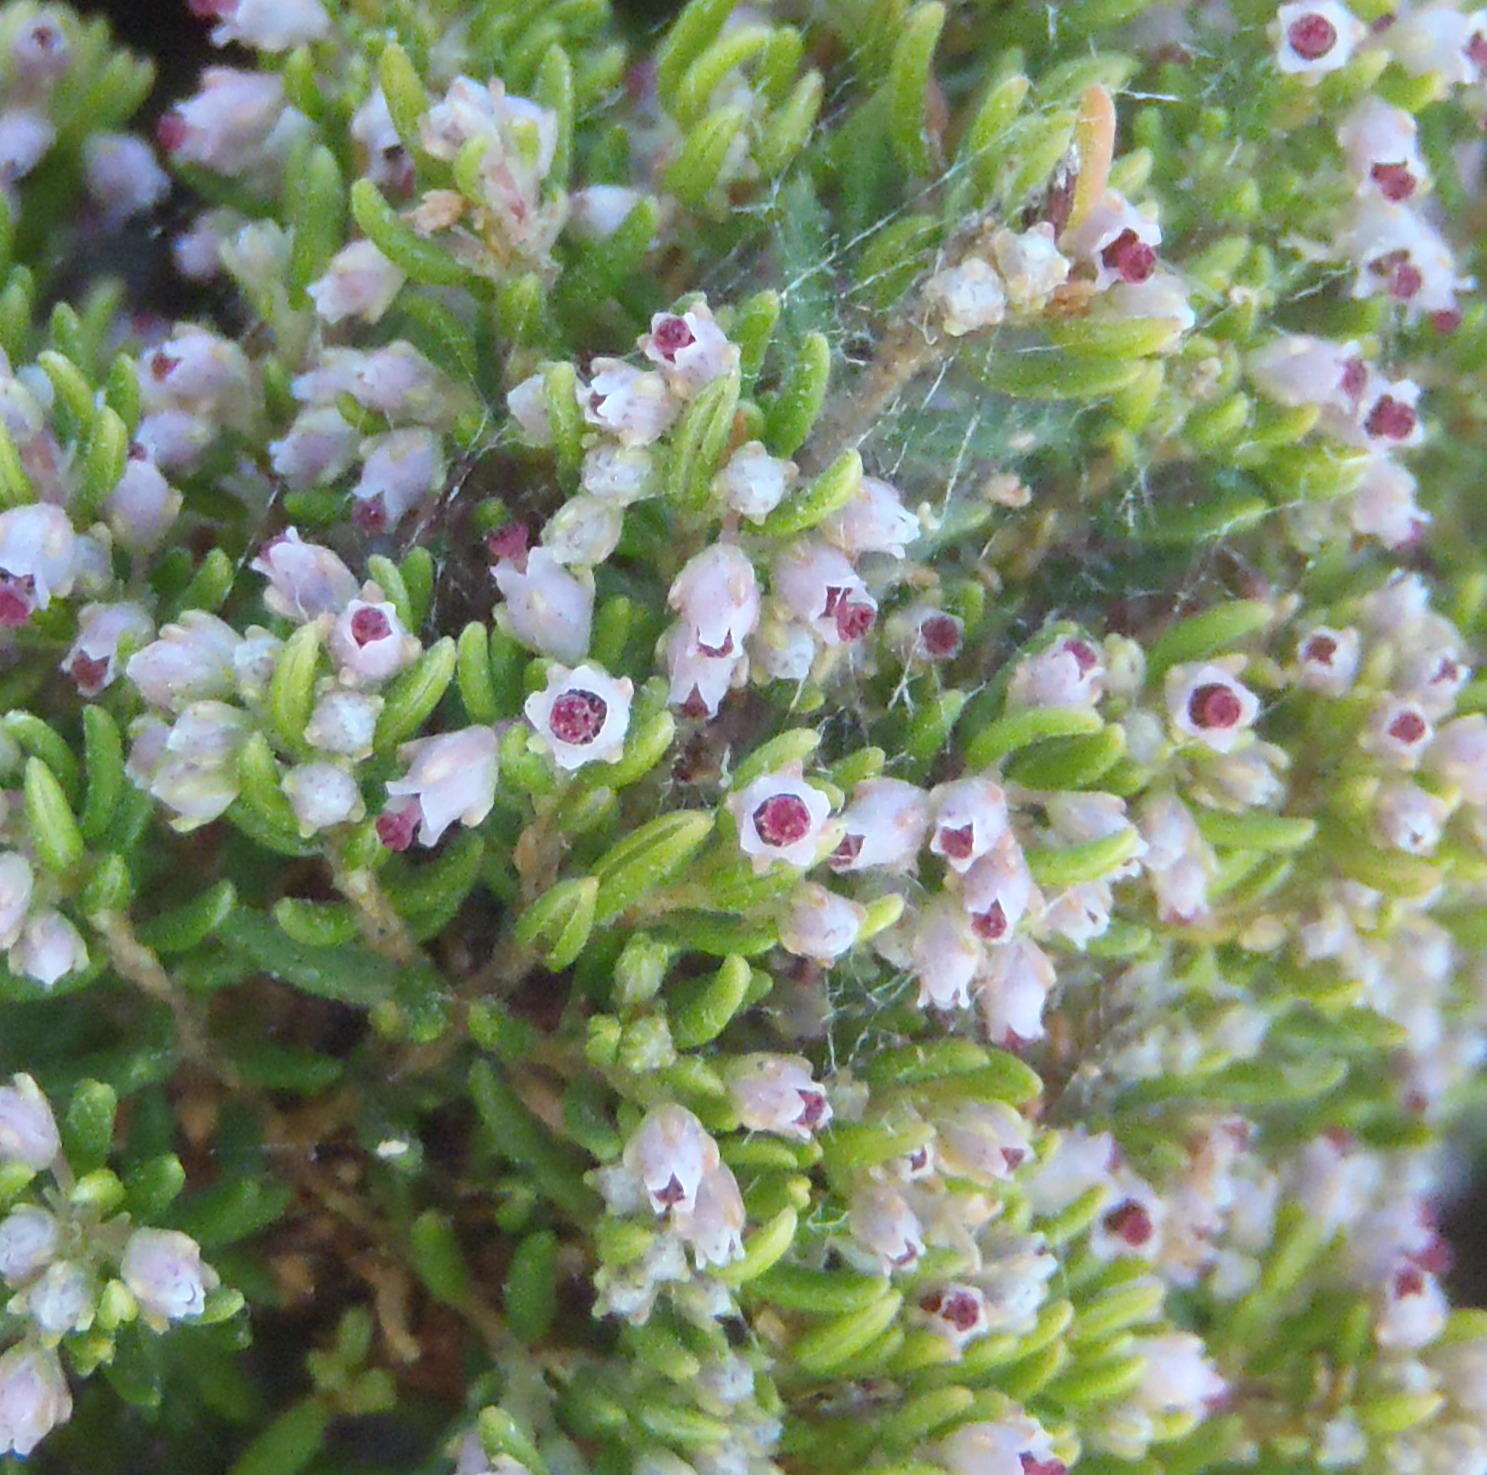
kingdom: Plantae
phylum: Tracheophyta
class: Magnoliopsida
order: Ericales
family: Ericaceae
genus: Erica
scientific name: Erica hispidula
